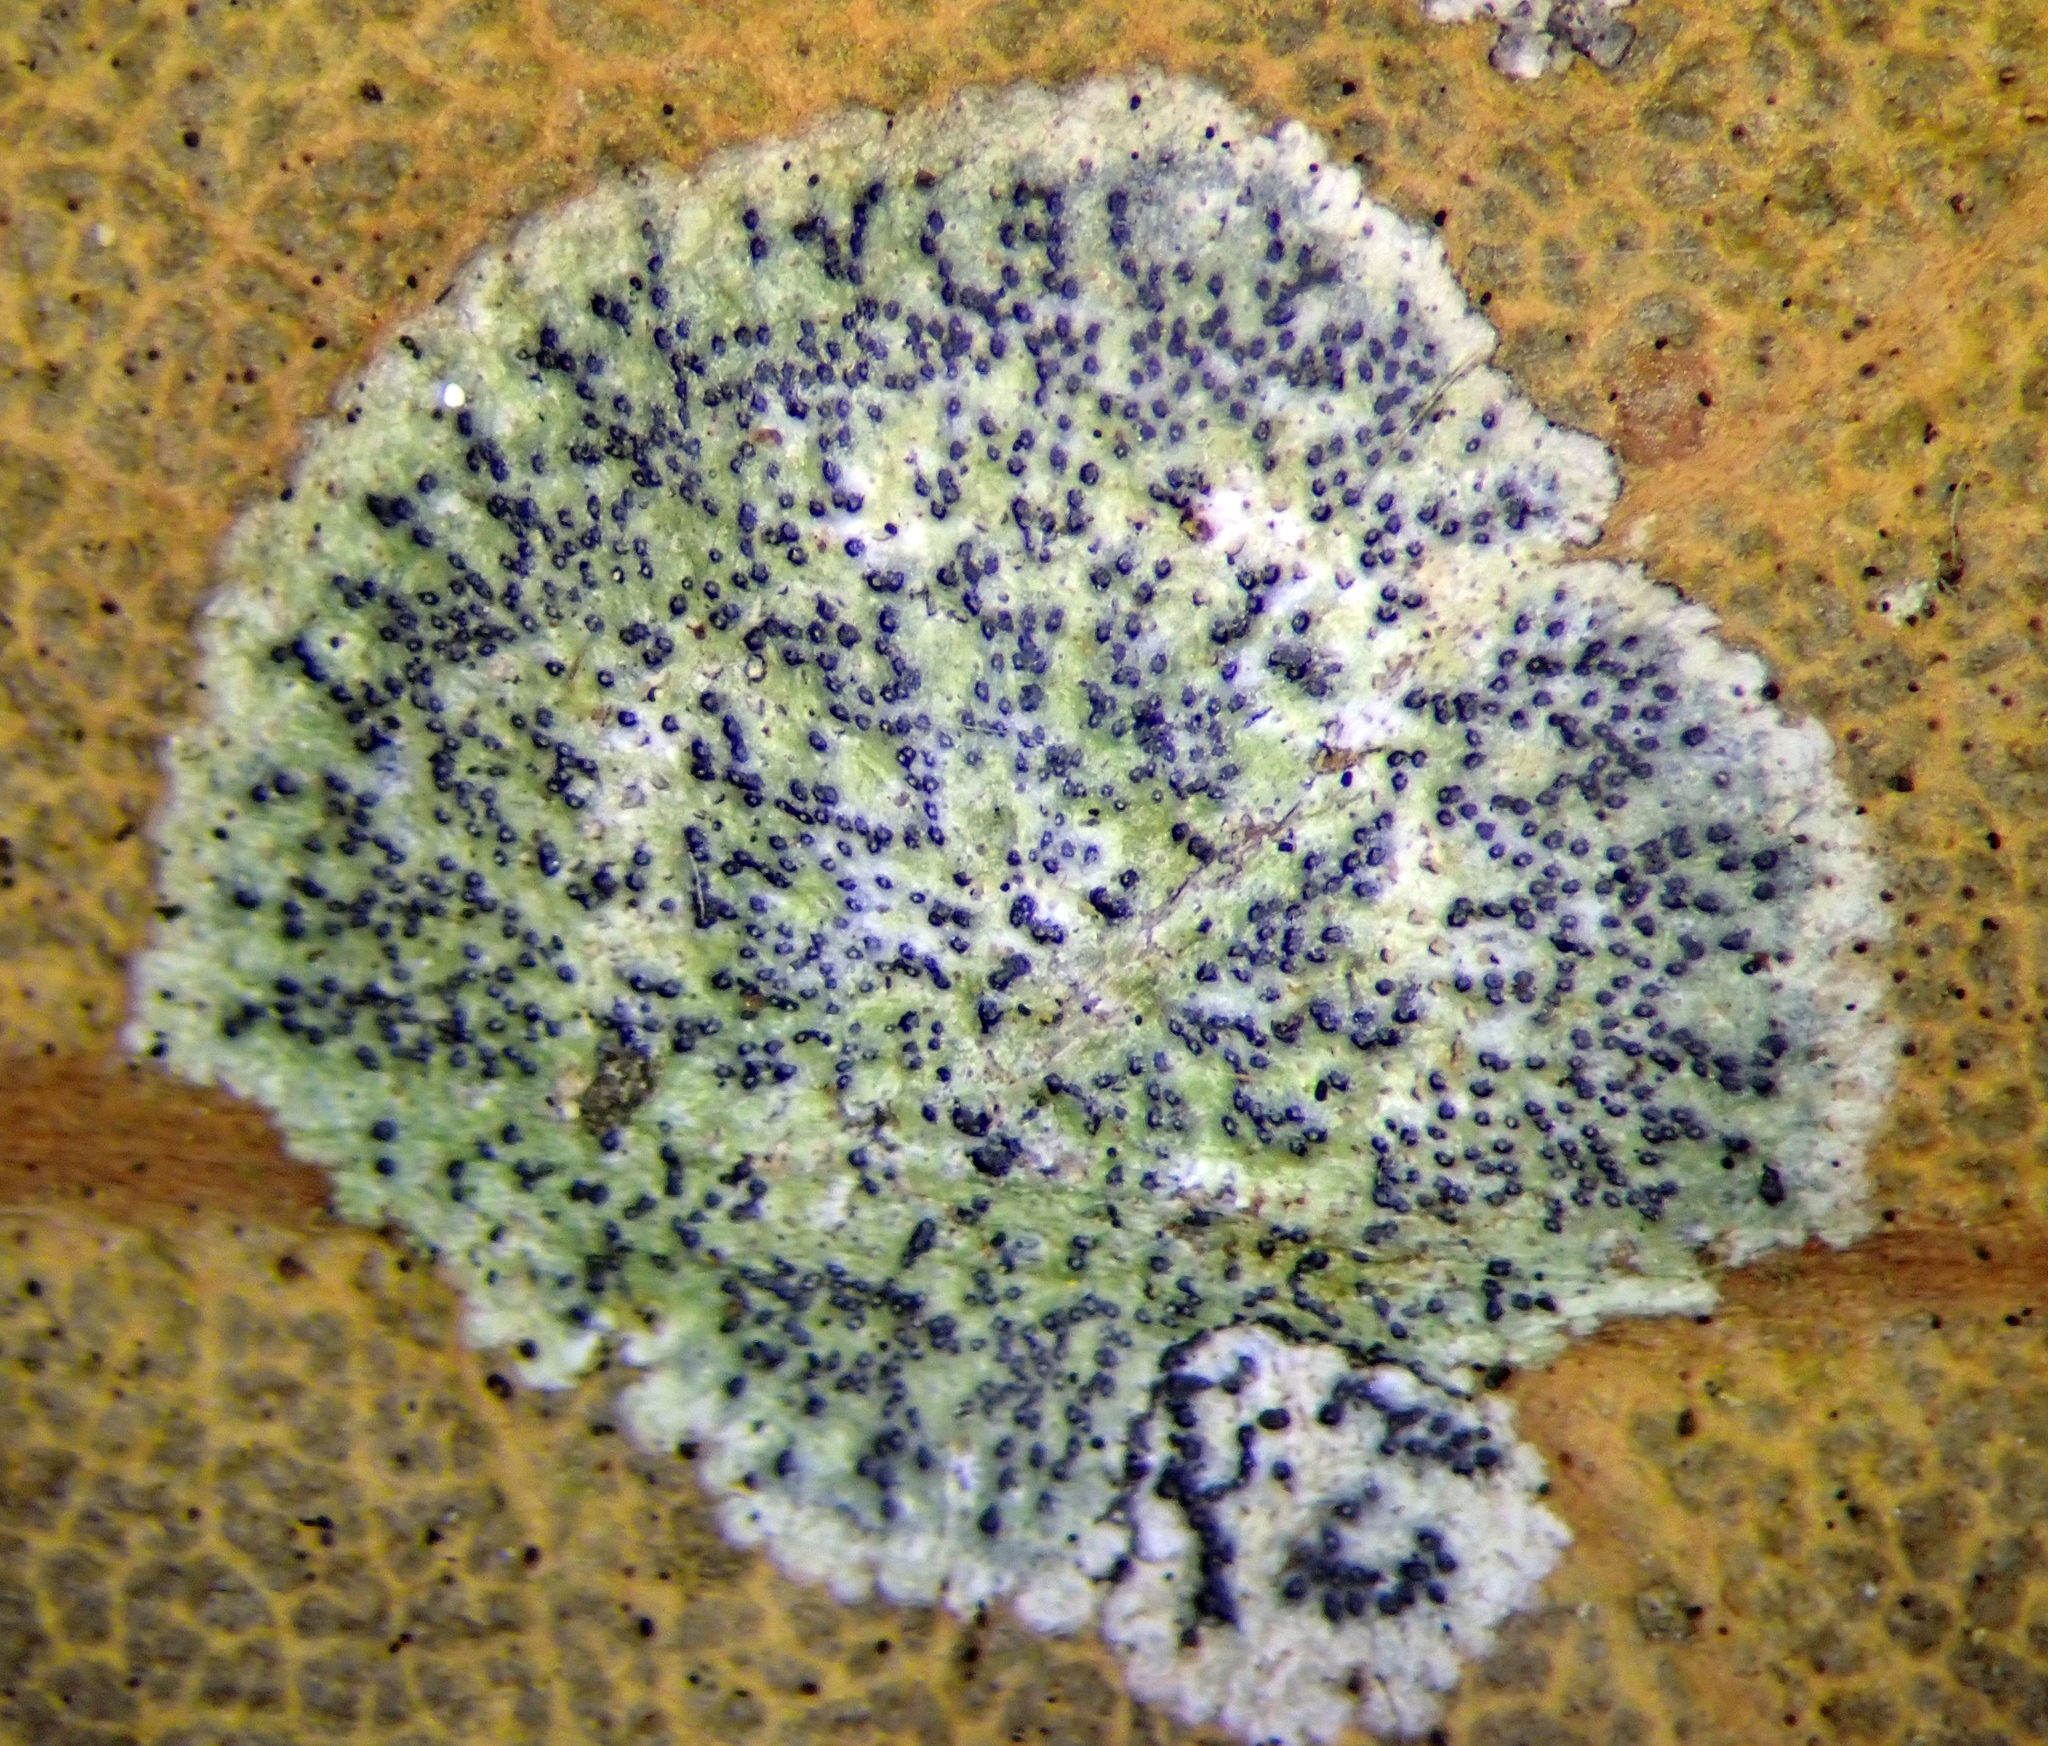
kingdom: Fungi
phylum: Ascomycota
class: Dothideomycetes
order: Strigulales
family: Strigulaceae
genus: Strigula
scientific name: Strigula novae-zelandiae
